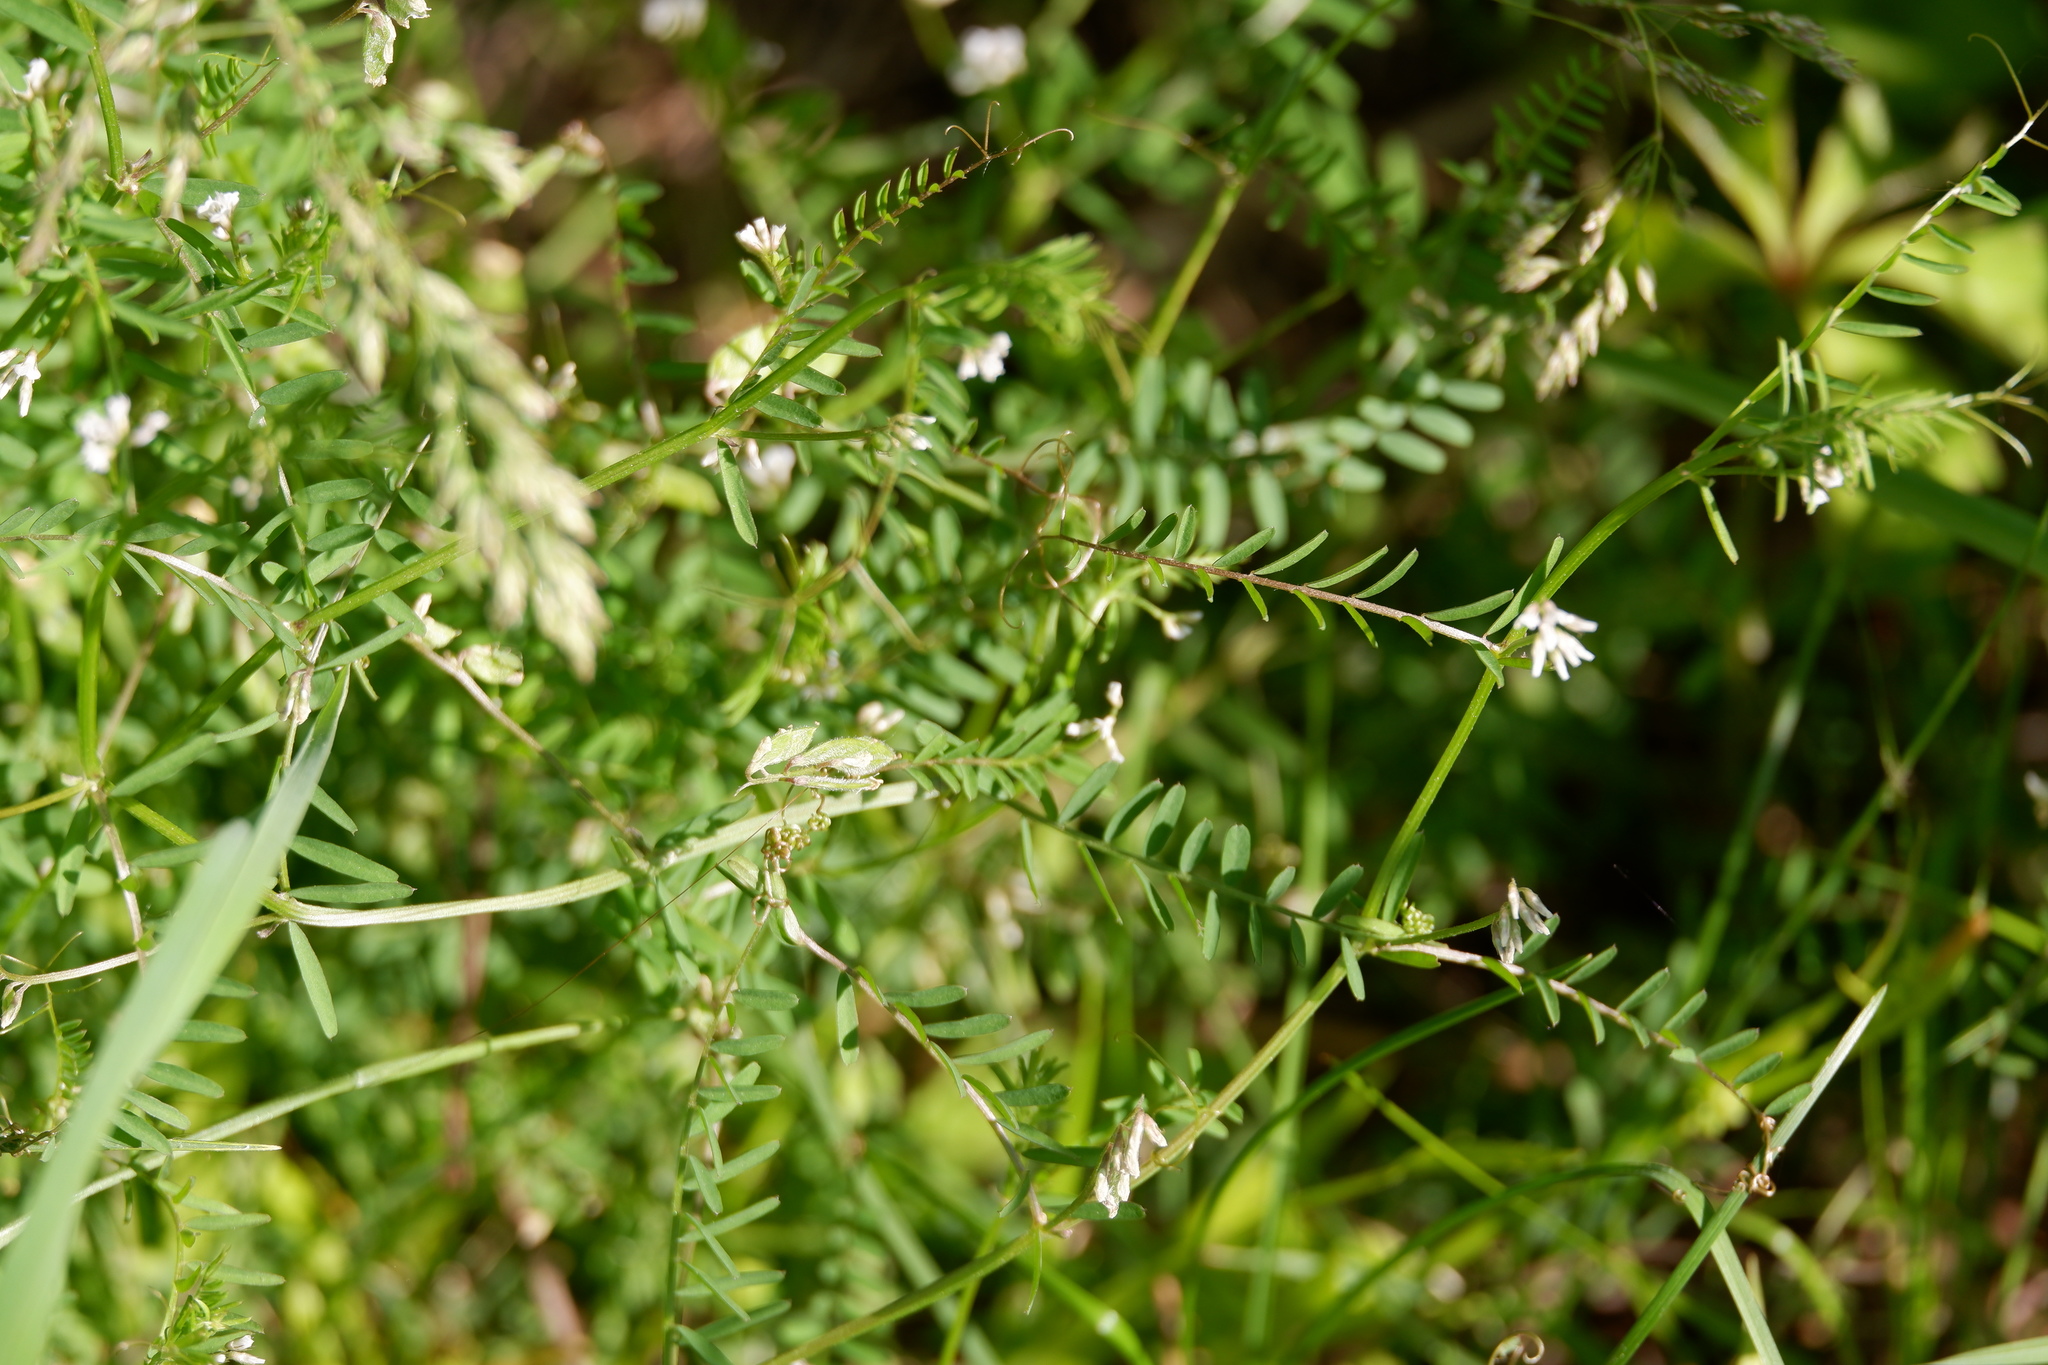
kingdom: Plantae
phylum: Tracheophyta
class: Magnoliopsida
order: Fabales
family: Fabaceae
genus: Vicia
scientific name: Vicia hirsuta
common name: Tiny vetch
